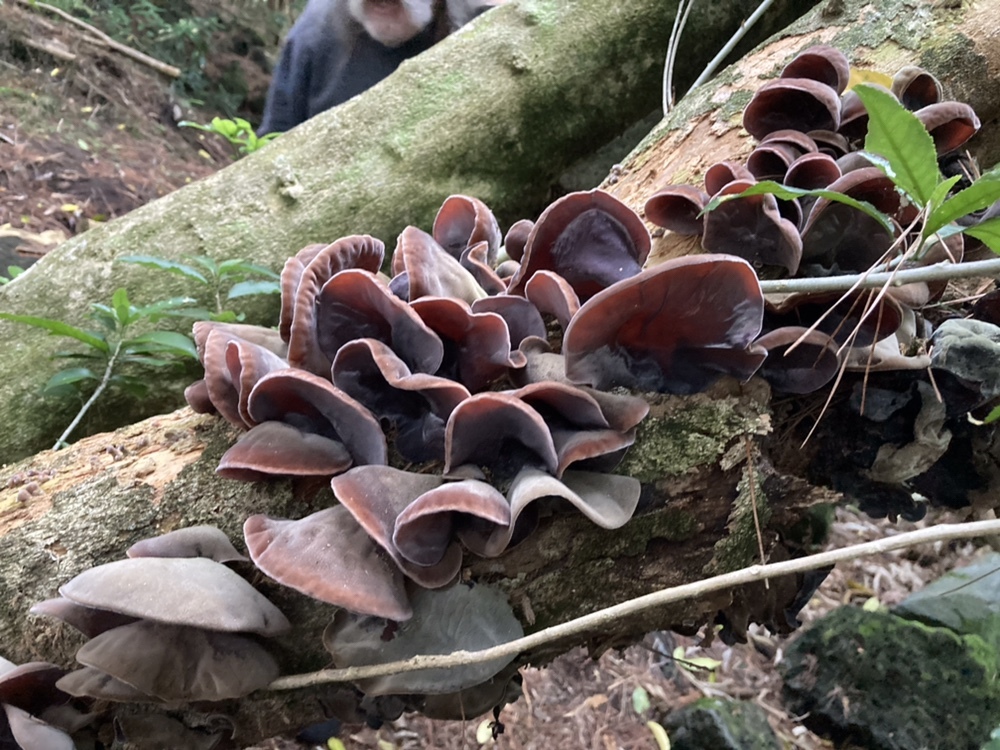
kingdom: Fungi
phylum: Basidiomycota
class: Agaricomycetes
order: Auriculariales
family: Auriculariaceae
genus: Auricularia
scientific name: Auricularia cornea
